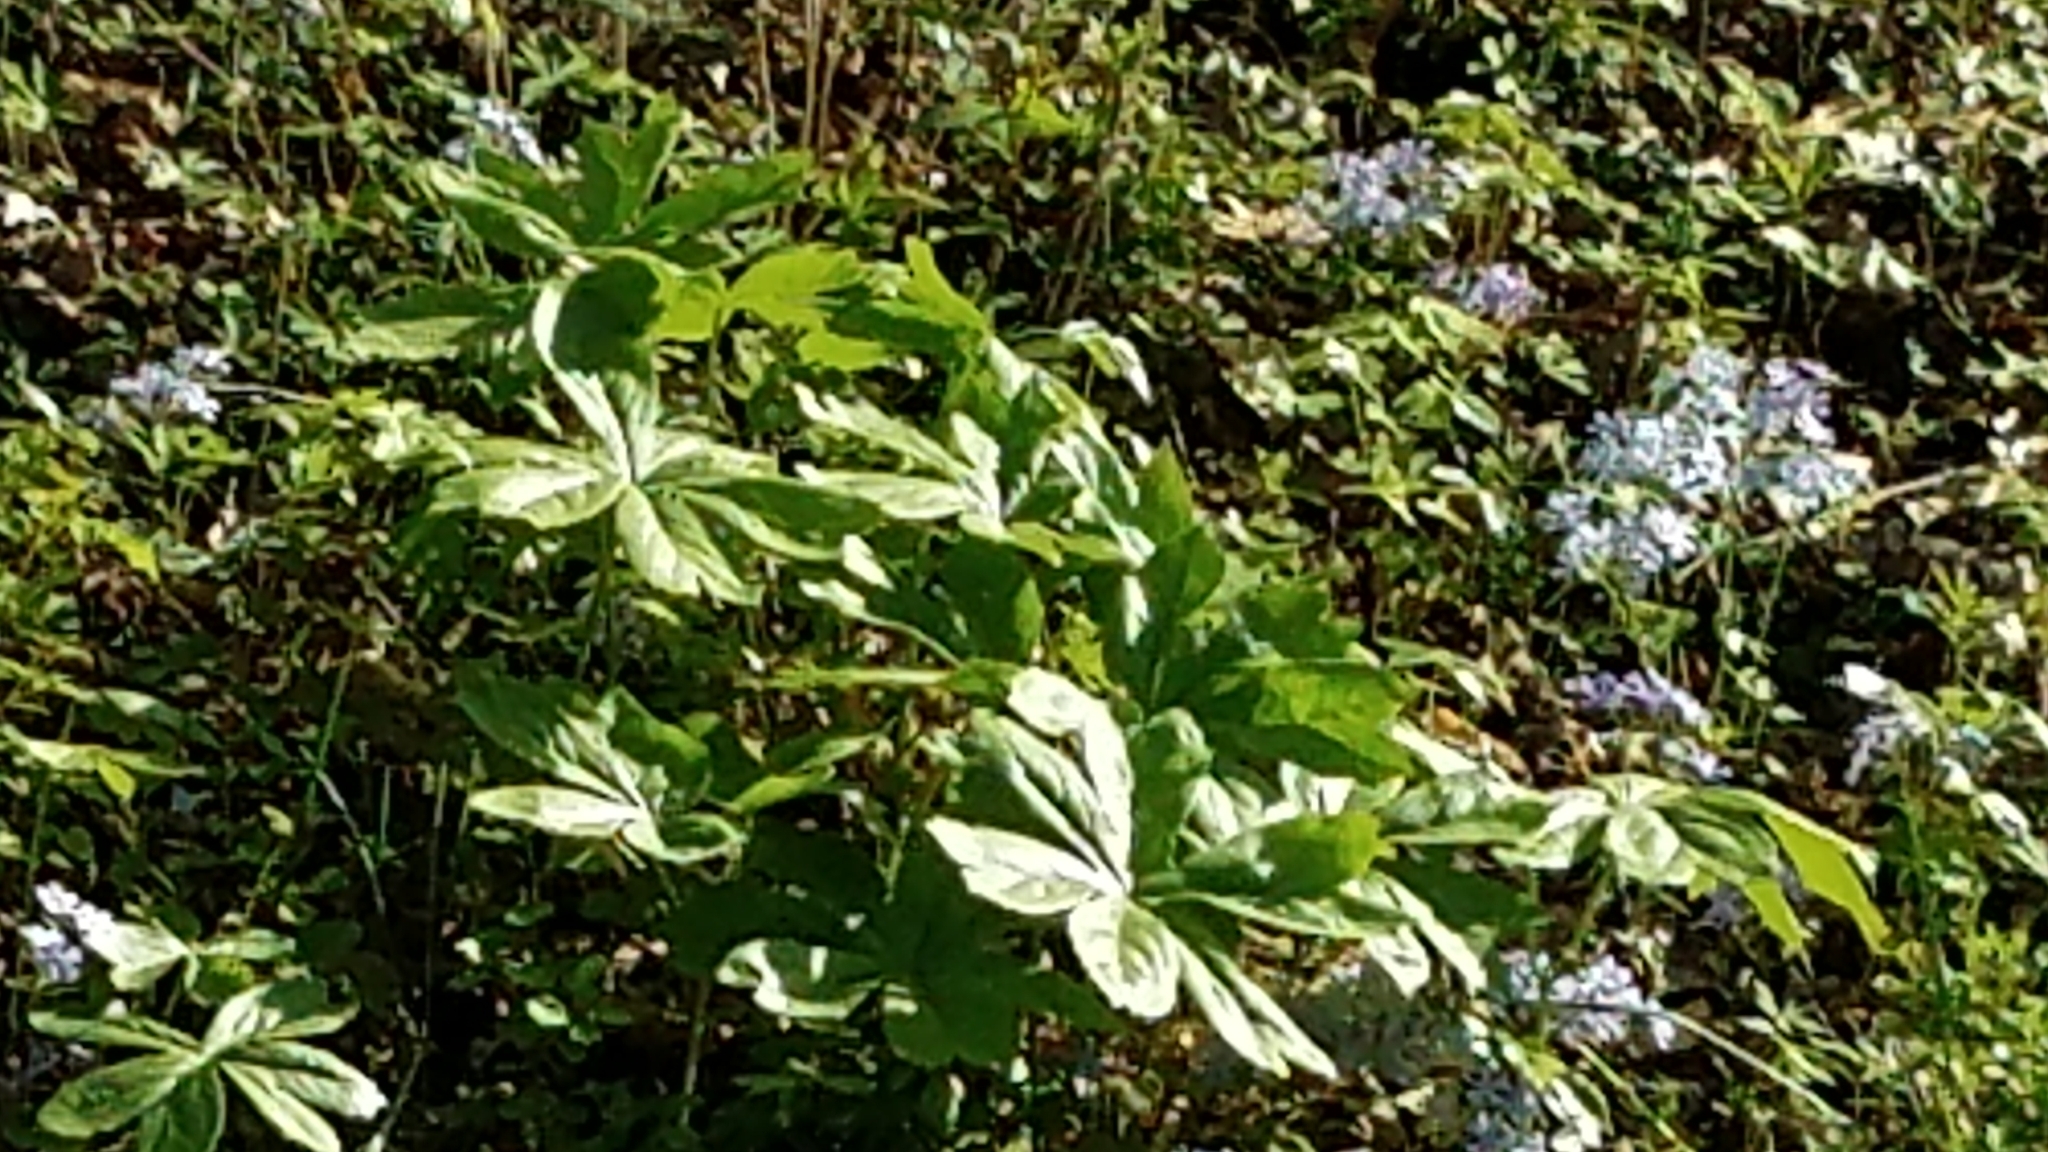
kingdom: Plantae
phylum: Tracheophyta
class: Magnoliopsida
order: Ranunculales
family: Berberidaceae
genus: Podophyllum
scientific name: Podophyllum peltatum
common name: Wild mandrake
